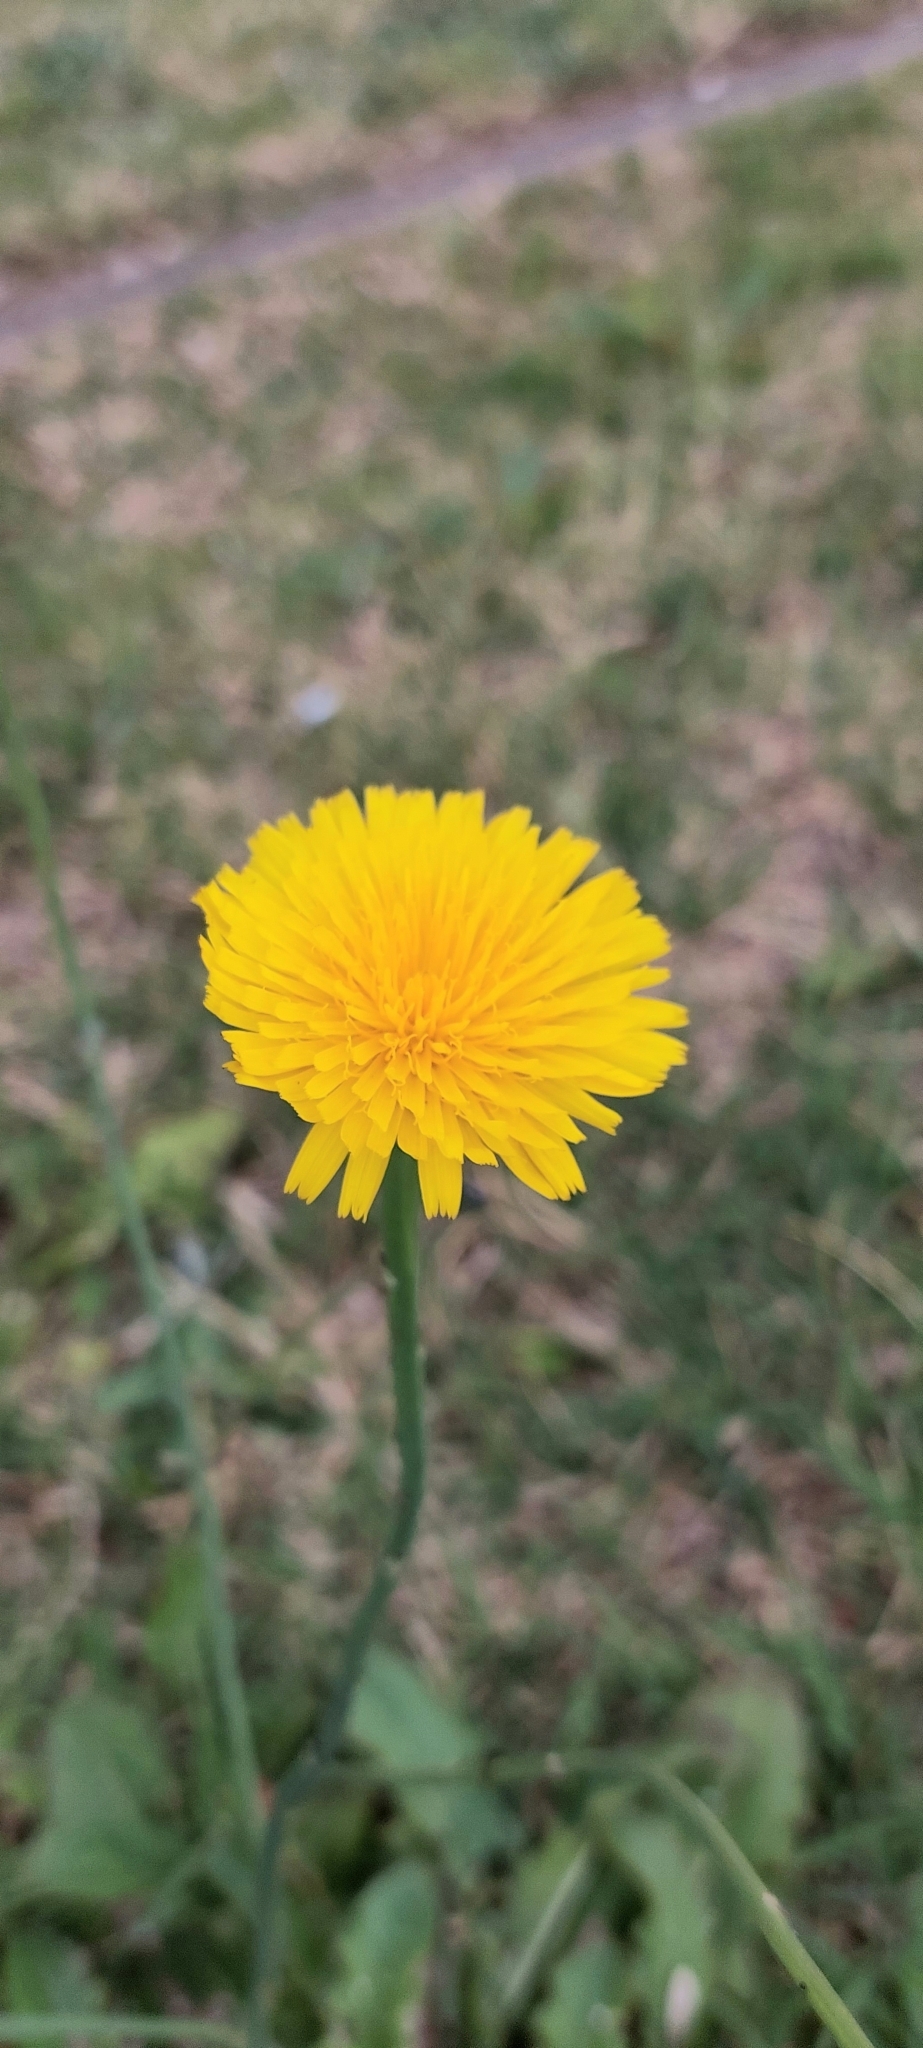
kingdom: Plantae
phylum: Tracheophyta
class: Magnoliopsida
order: Asterales
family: Asteraceae
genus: Hypochaeris
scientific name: Hypochaeris radicata
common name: Flatweed
